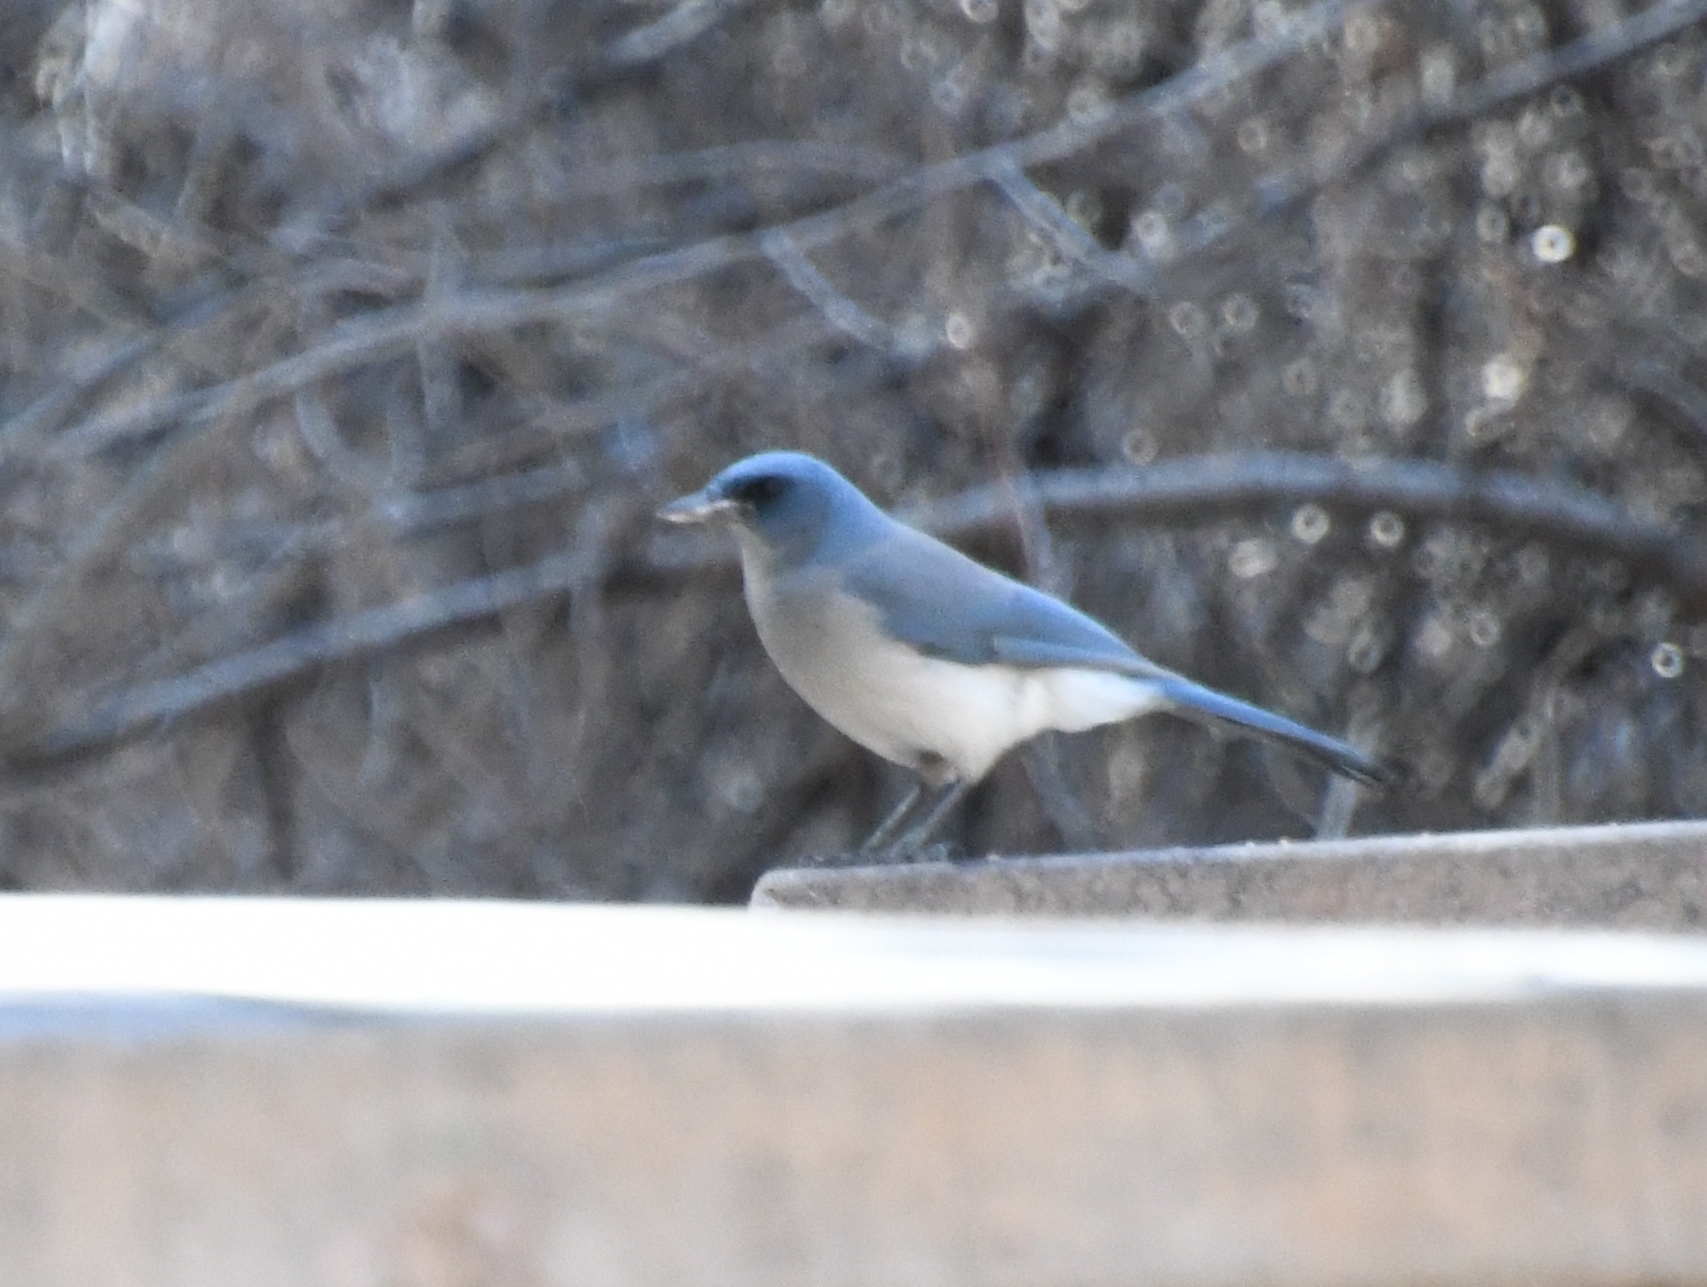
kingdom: Animalia
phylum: Chordata
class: Aves
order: Passeriformes
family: Corvidae
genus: Aphelocoma
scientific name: Aphelocoma wollweberi
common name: Mexican jay
